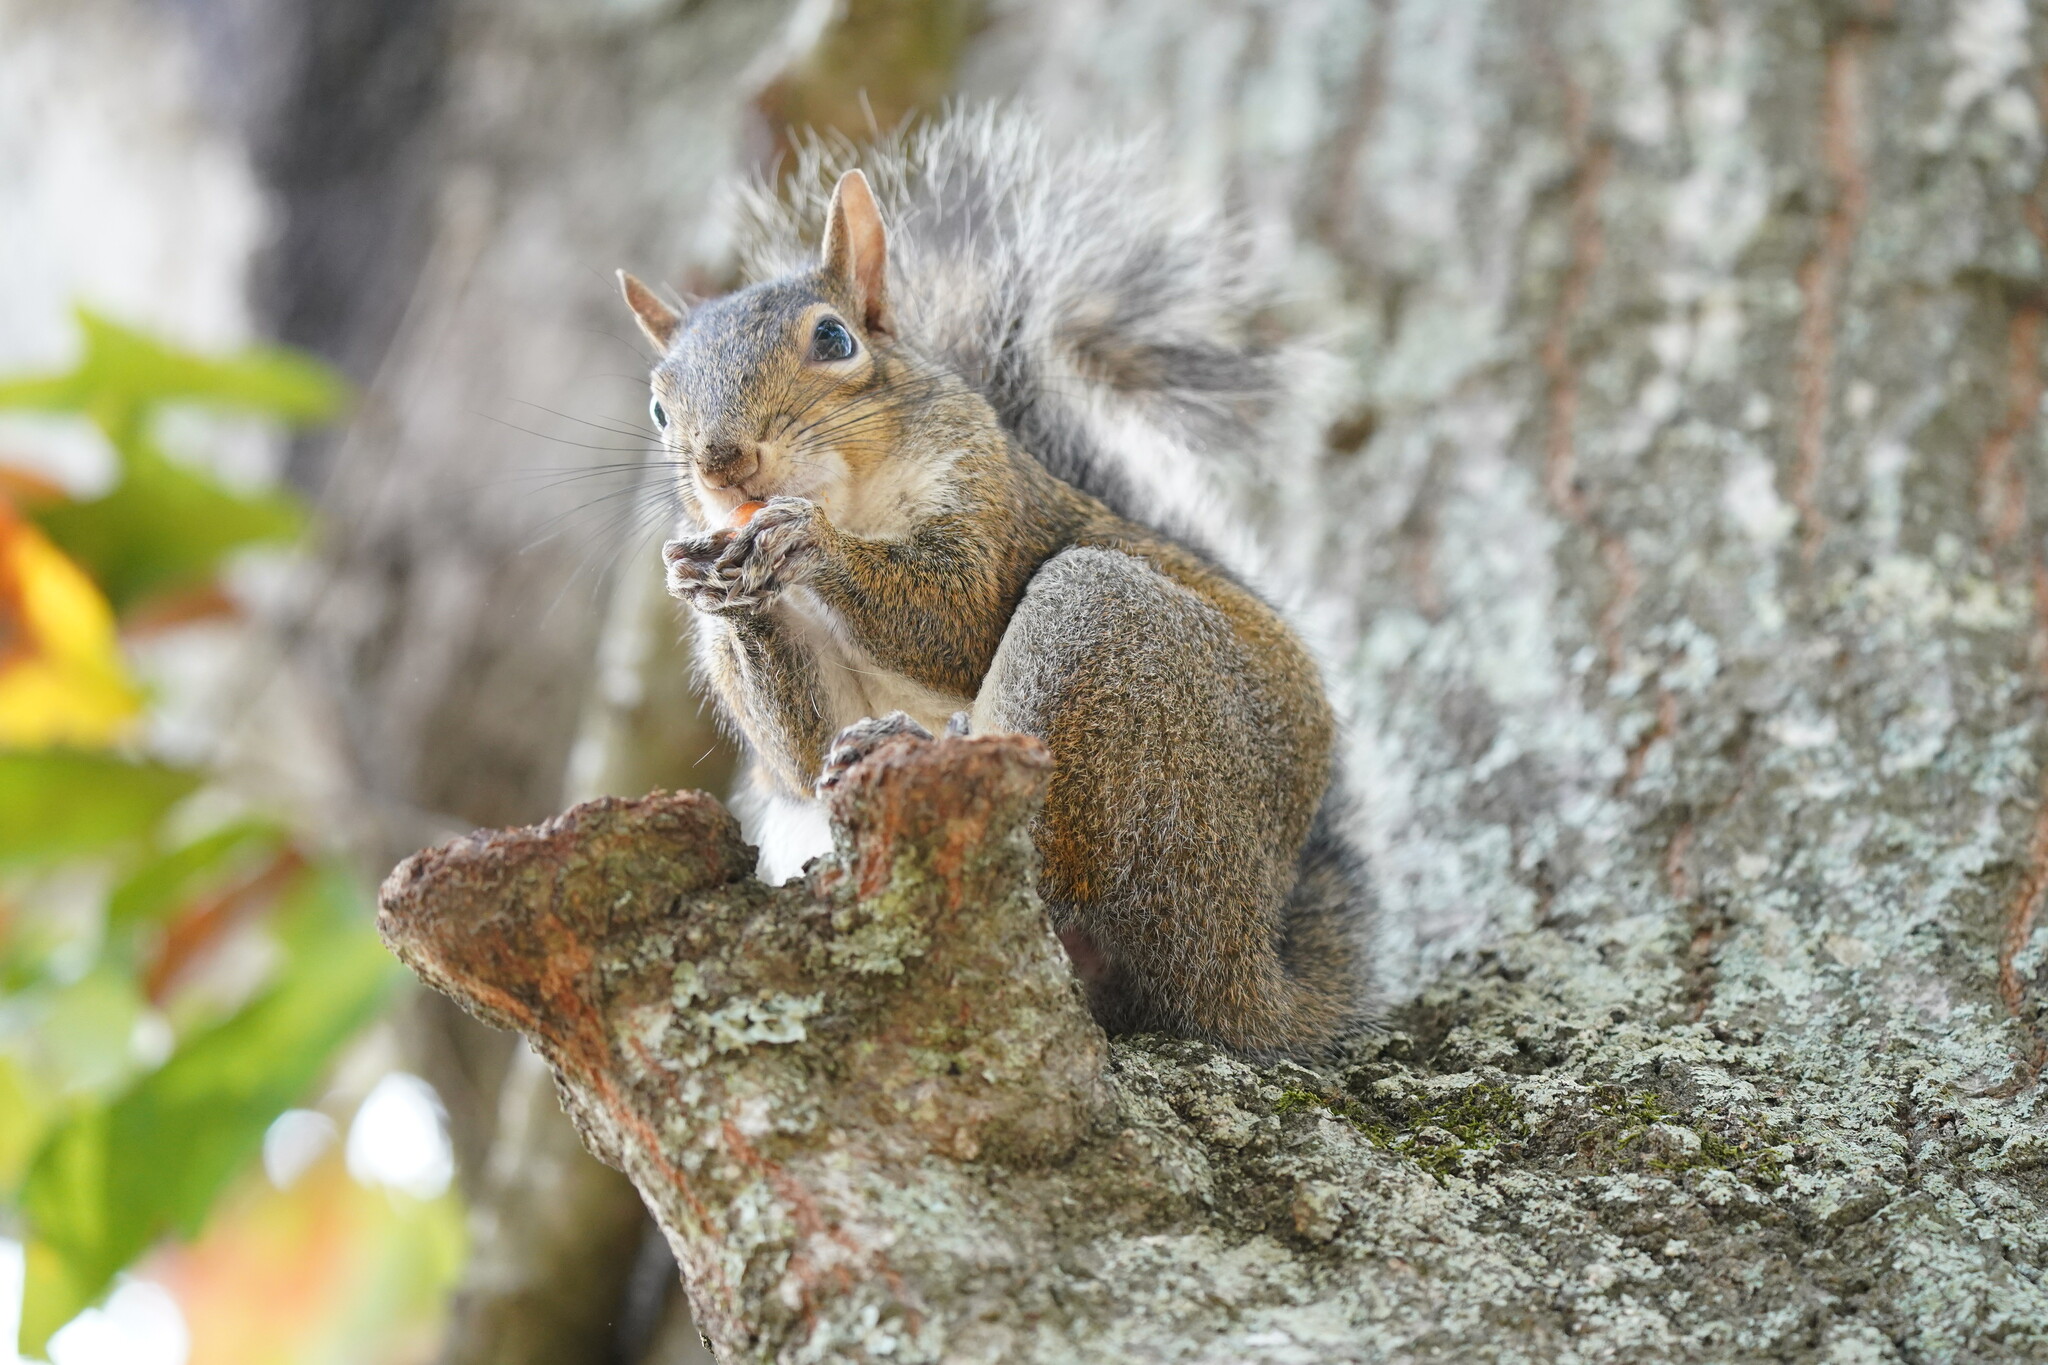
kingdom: Animalia
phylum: Chordata
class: Mammalia
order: Rodentia
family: Sciuridae
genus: Sciurus
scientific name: Sciurus carolinensis
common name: Eastern gray squirrel
